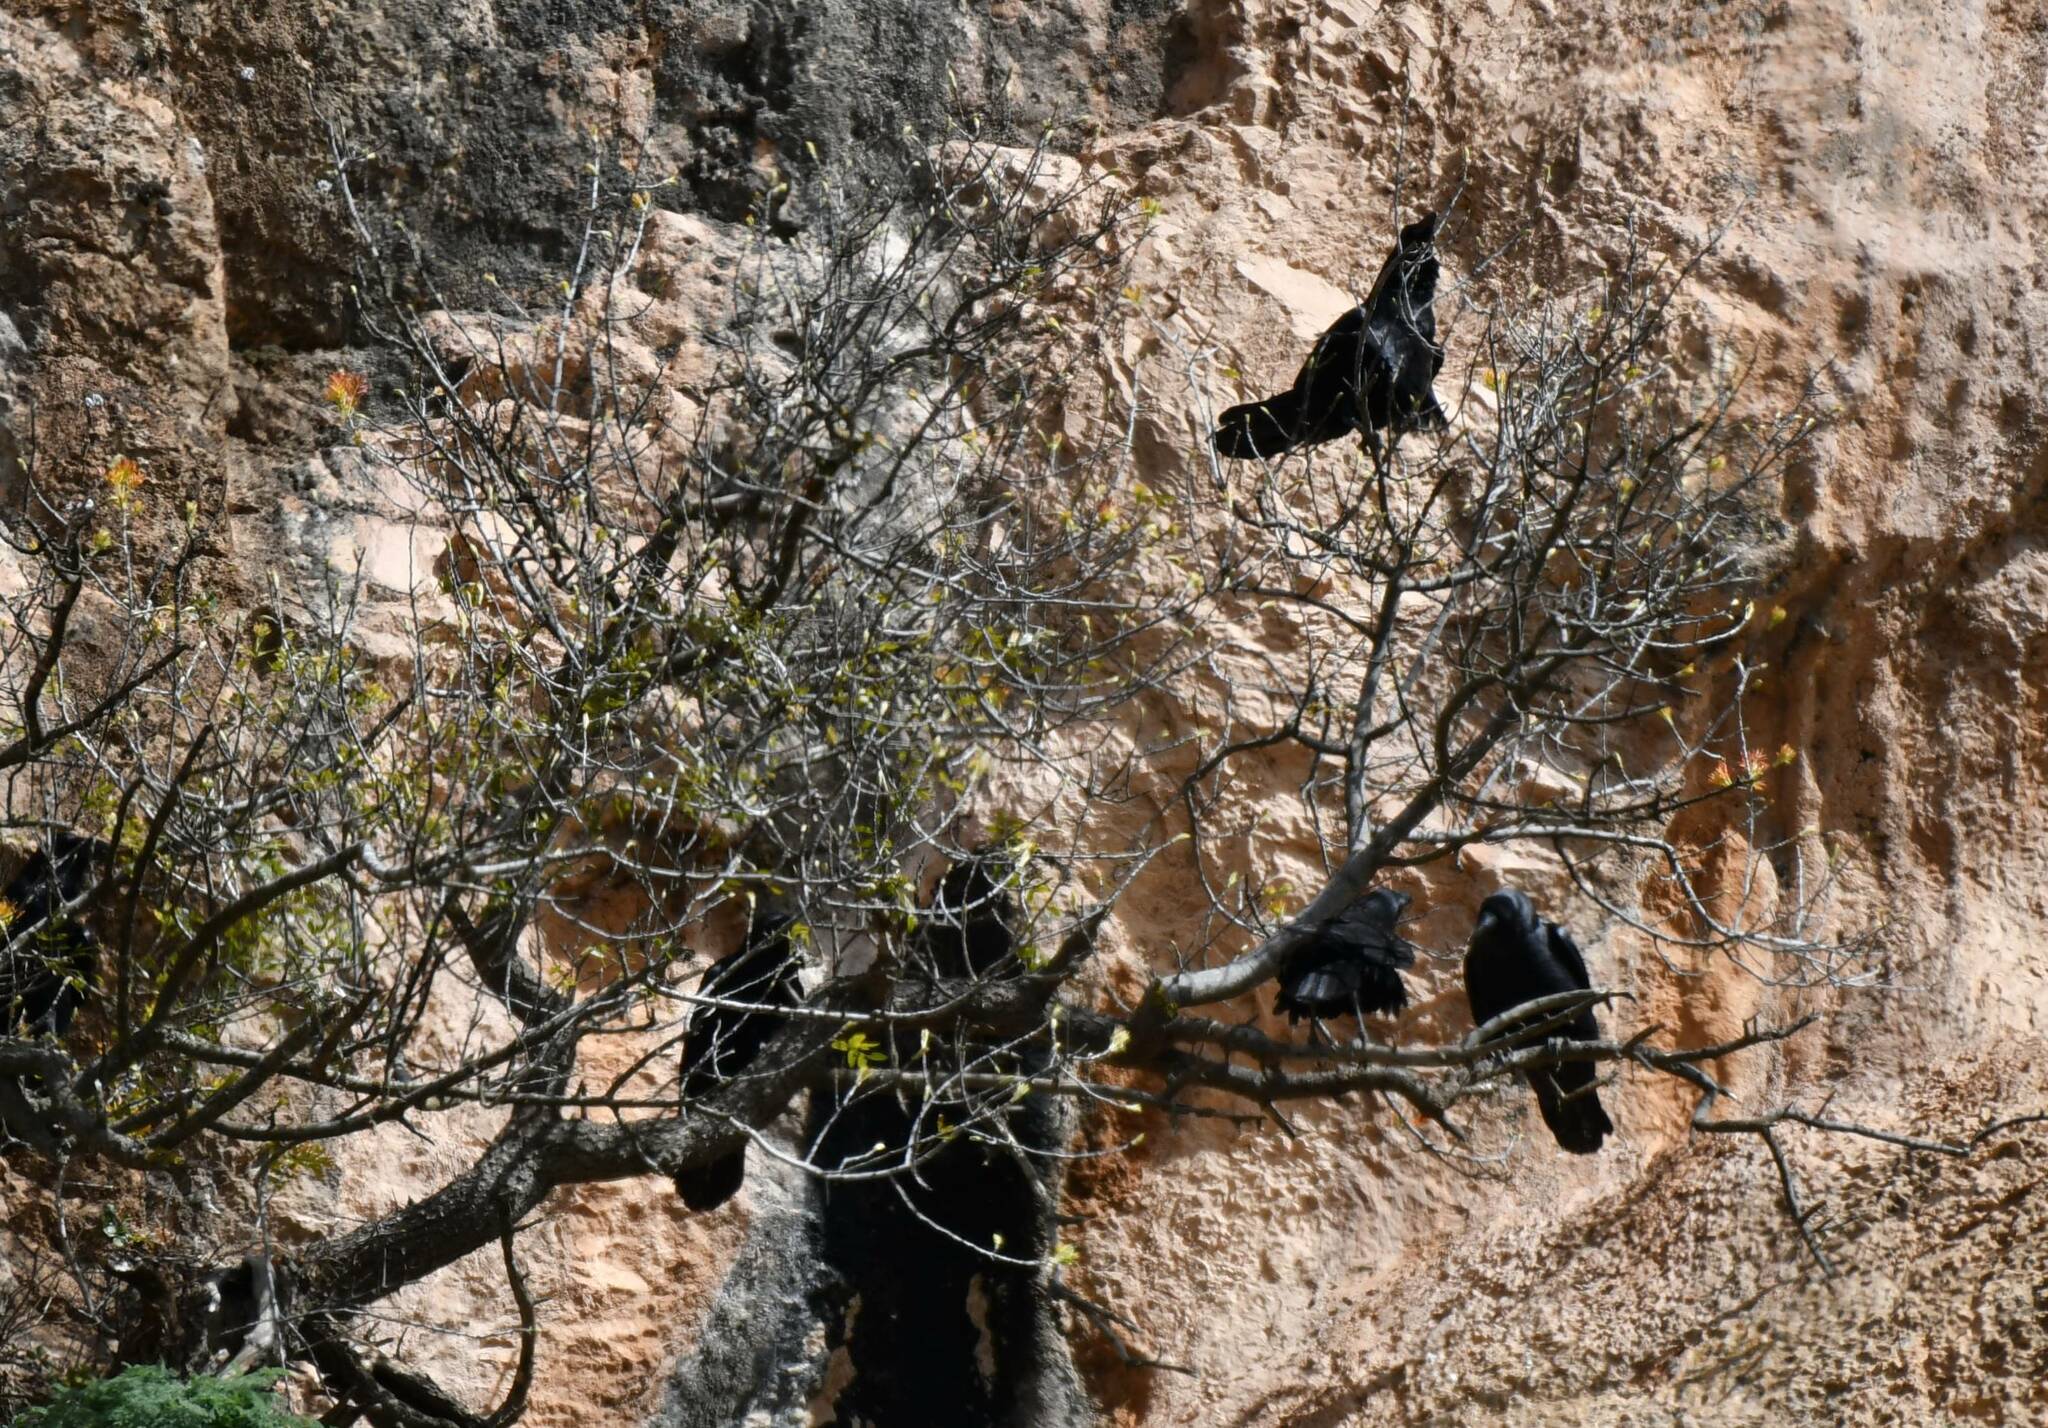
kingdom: Animalia
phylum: Chordata
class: Aves
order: Passeriformes
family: Corvidae
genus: Corvus
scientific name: Corvus corax
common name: Common raven
